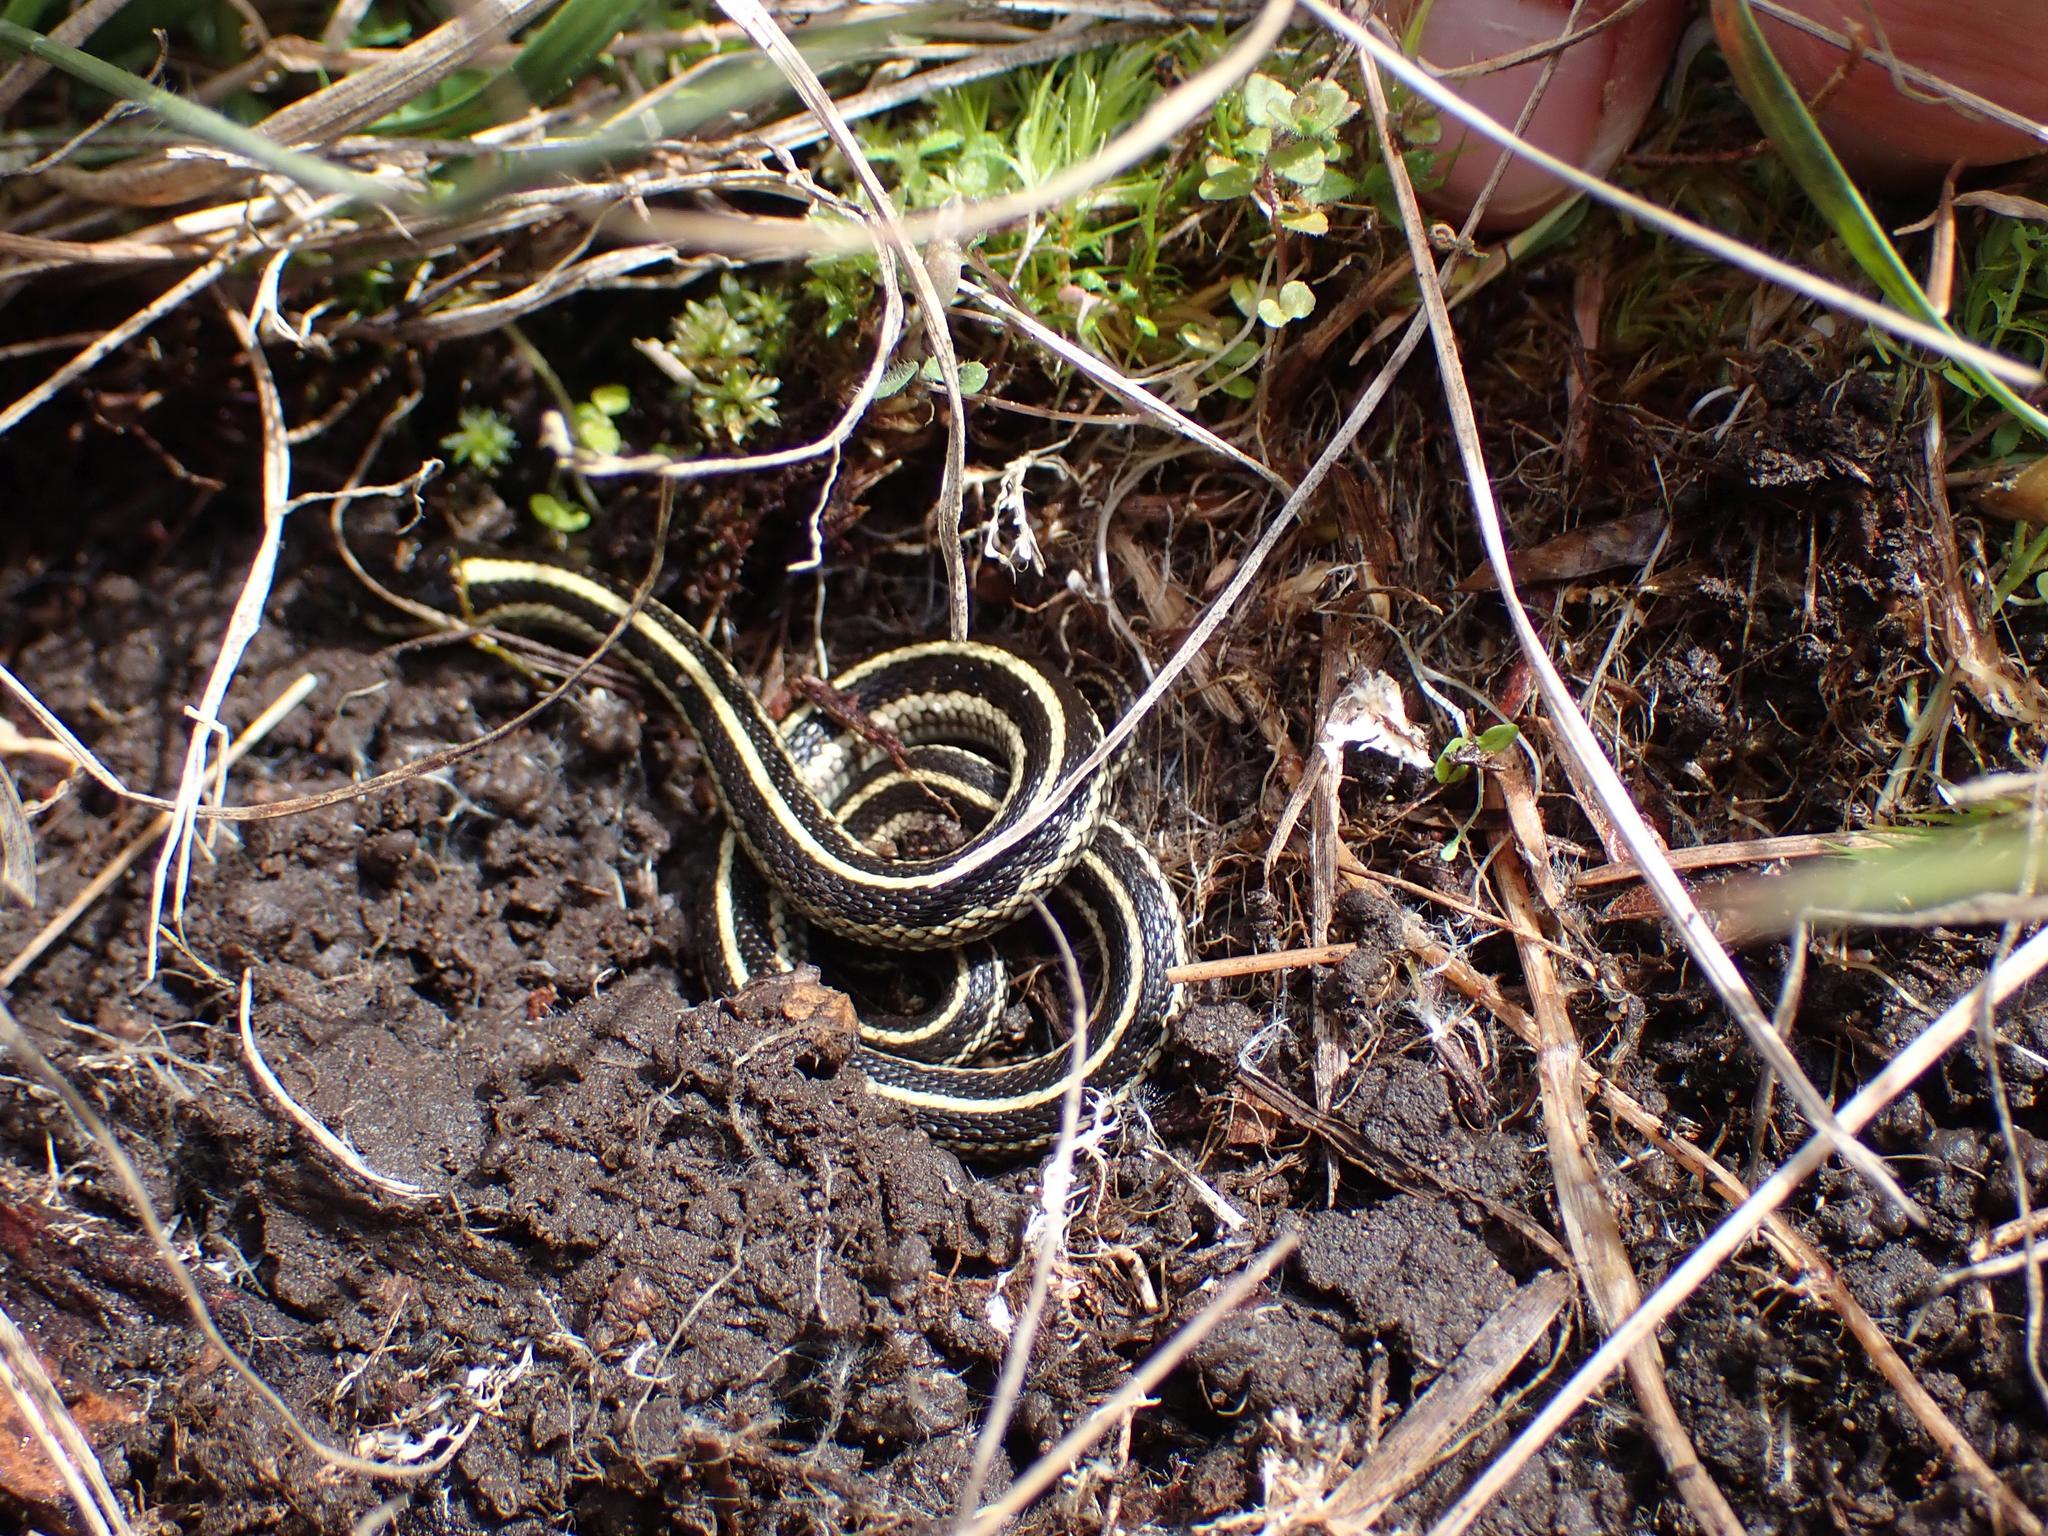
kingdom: Animalia
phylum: Chordata
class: Squamata
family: Colubridae
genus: Thamnophis
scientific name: Thamnophis sirtalis
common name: Common garter snake
